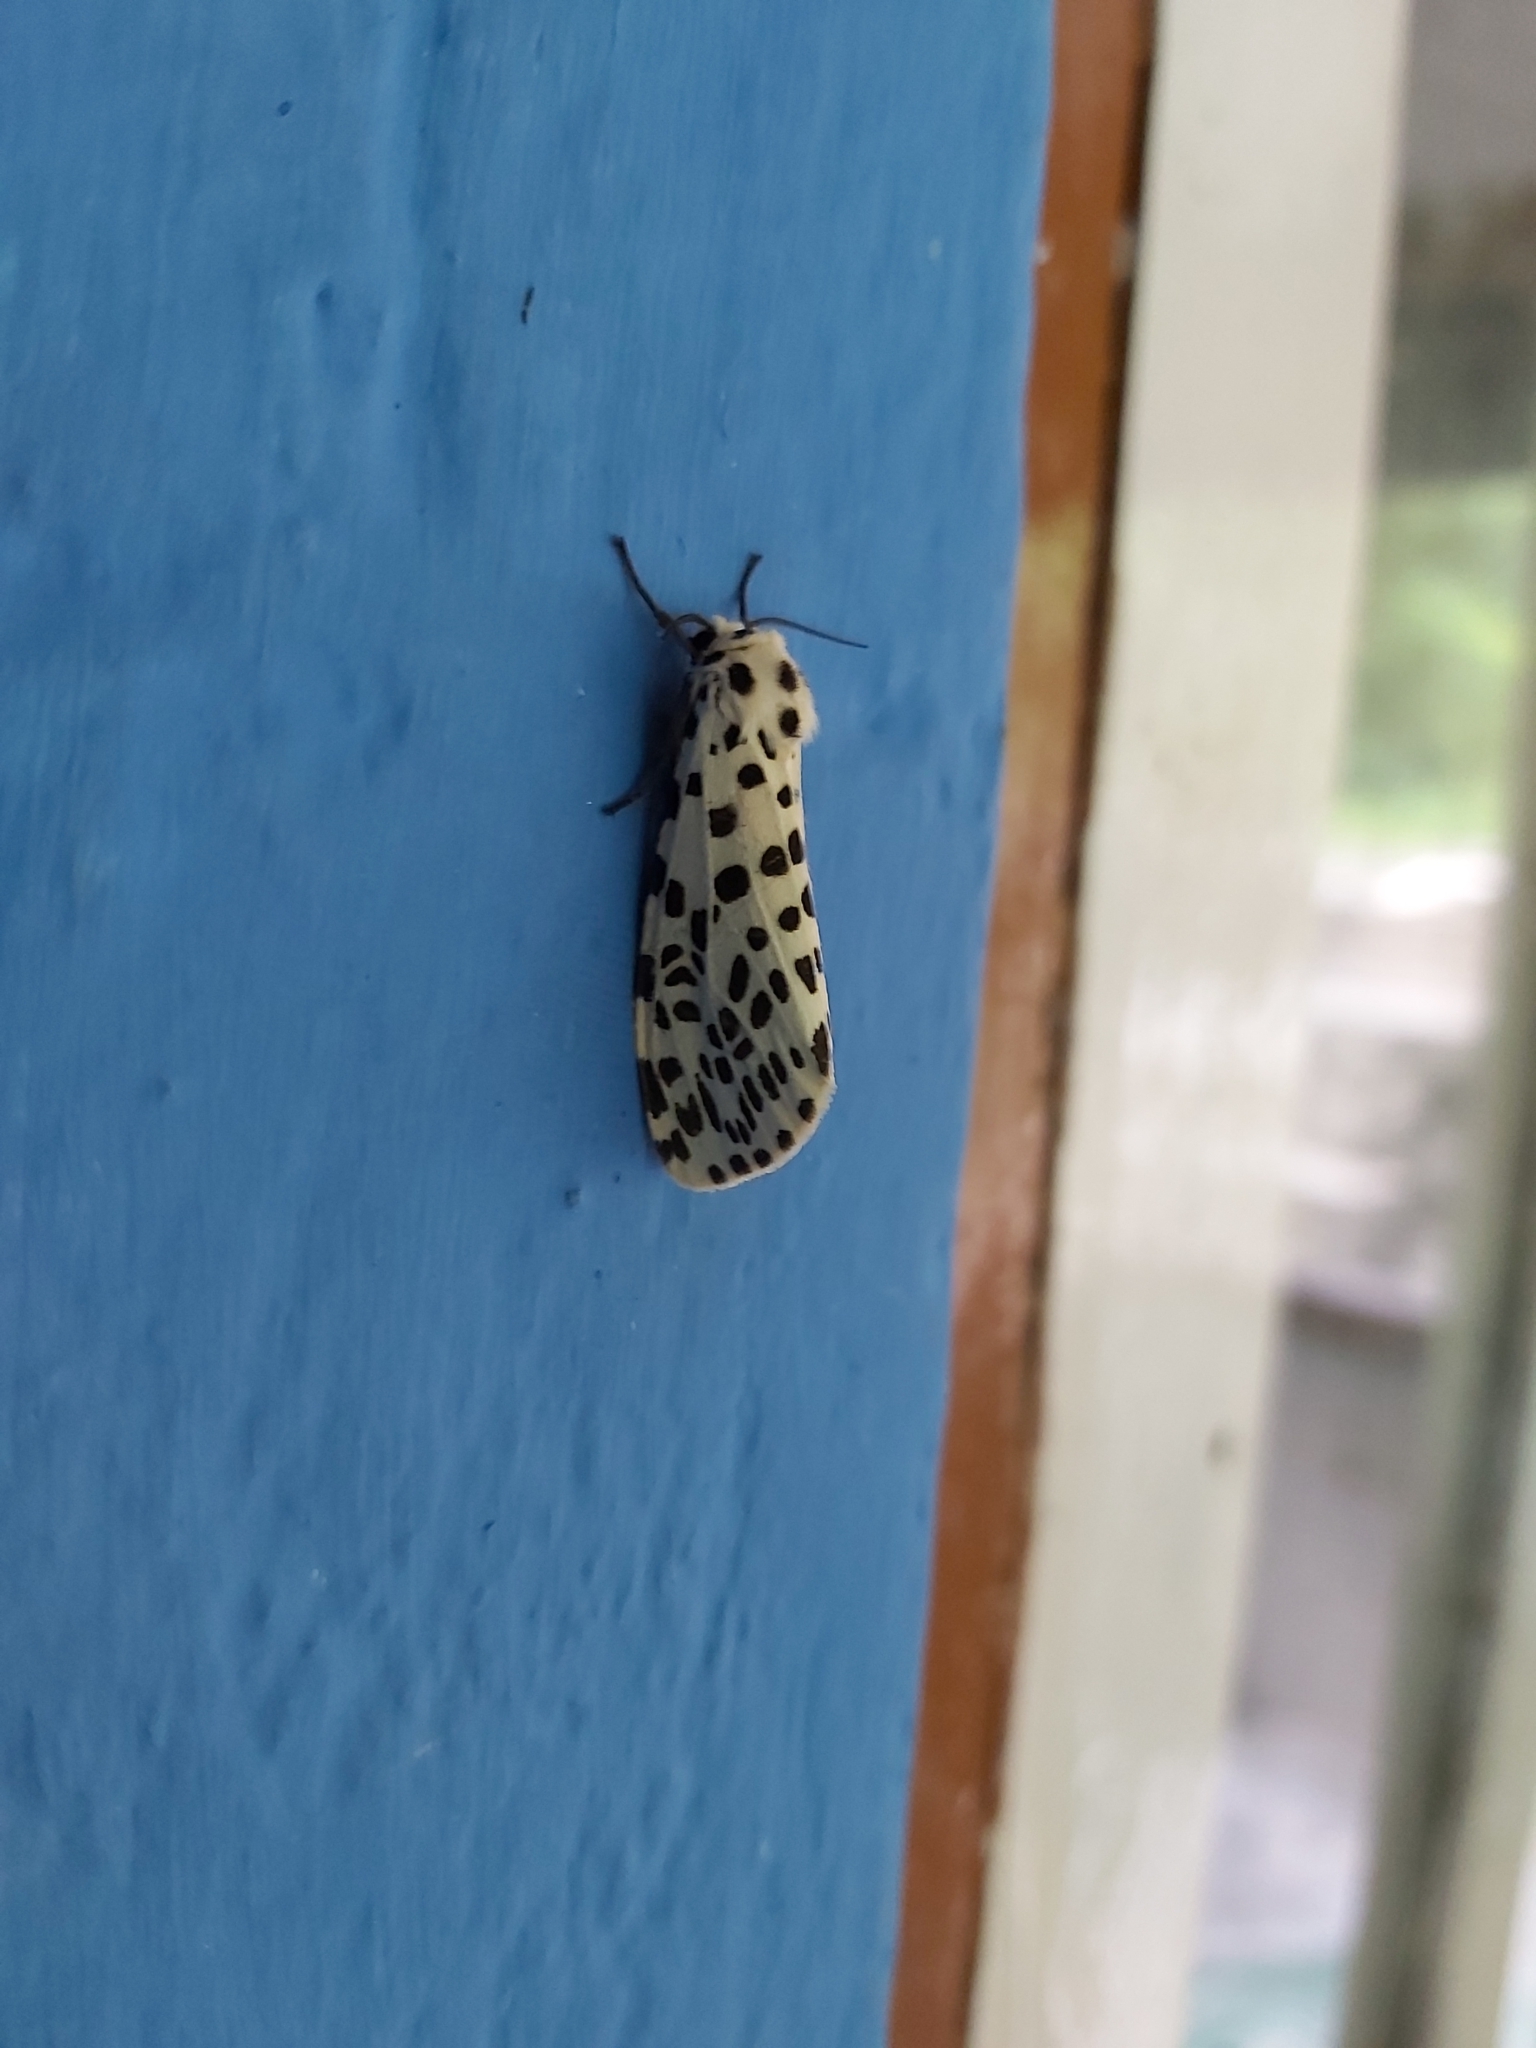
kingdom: Animalia
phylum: Arthropoda
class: Insecta
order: Lepidoptera
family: Erebidae
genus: Juxtarctia
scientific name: Juxtarctia
